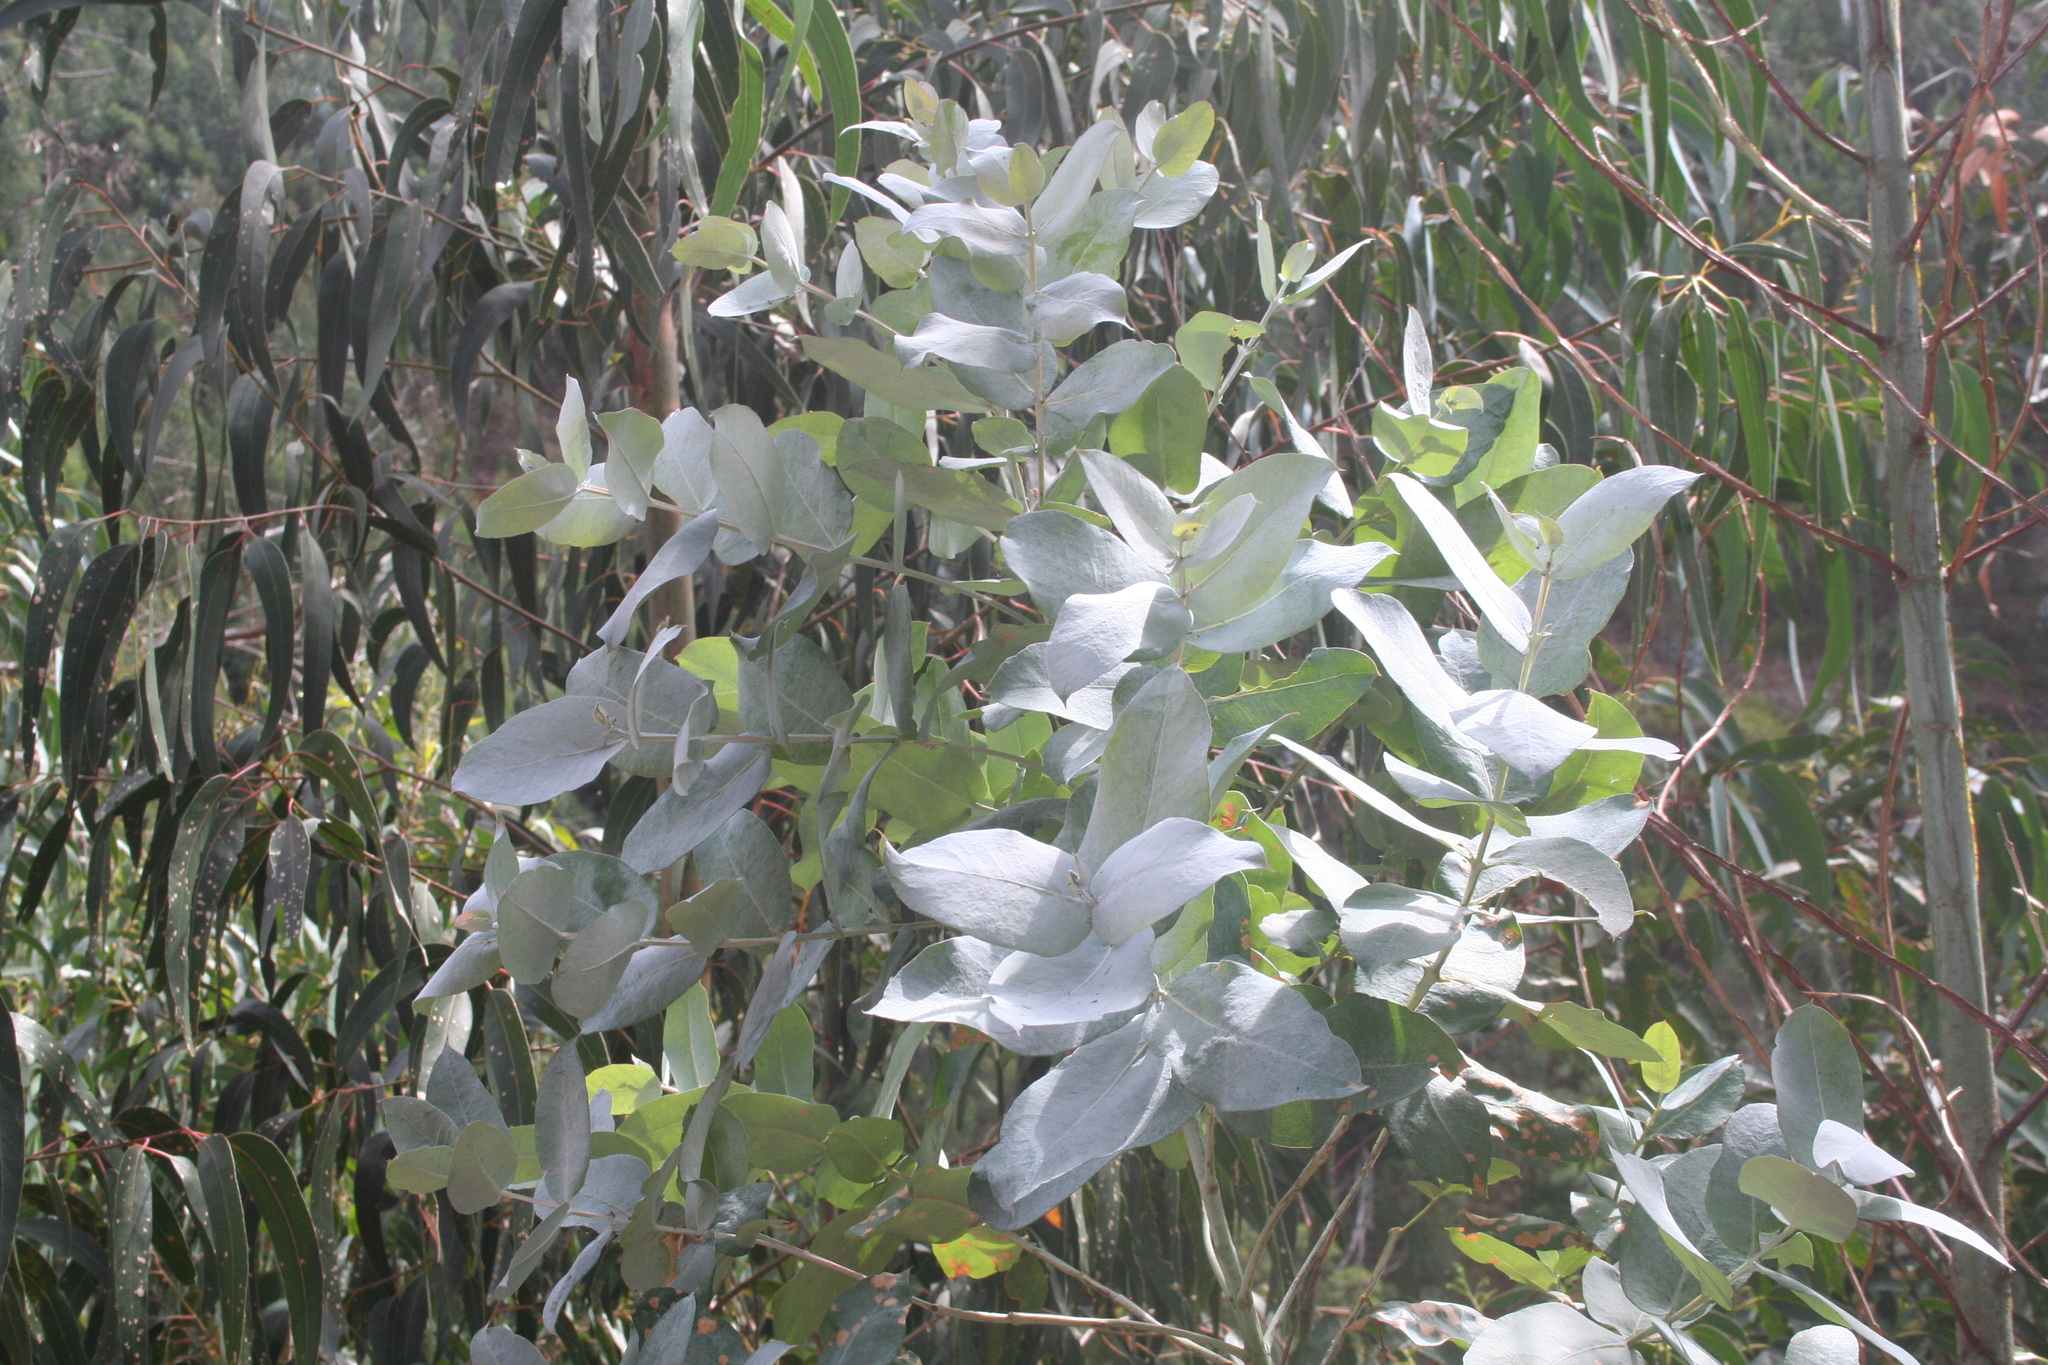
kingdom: Plantae
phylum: Tracheophyta
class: Magnoliopsida
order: Myrtales
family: Myrtaceae
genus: Eucalyptus
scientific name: Eucalyptus globulus
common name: Southern blue-gum
